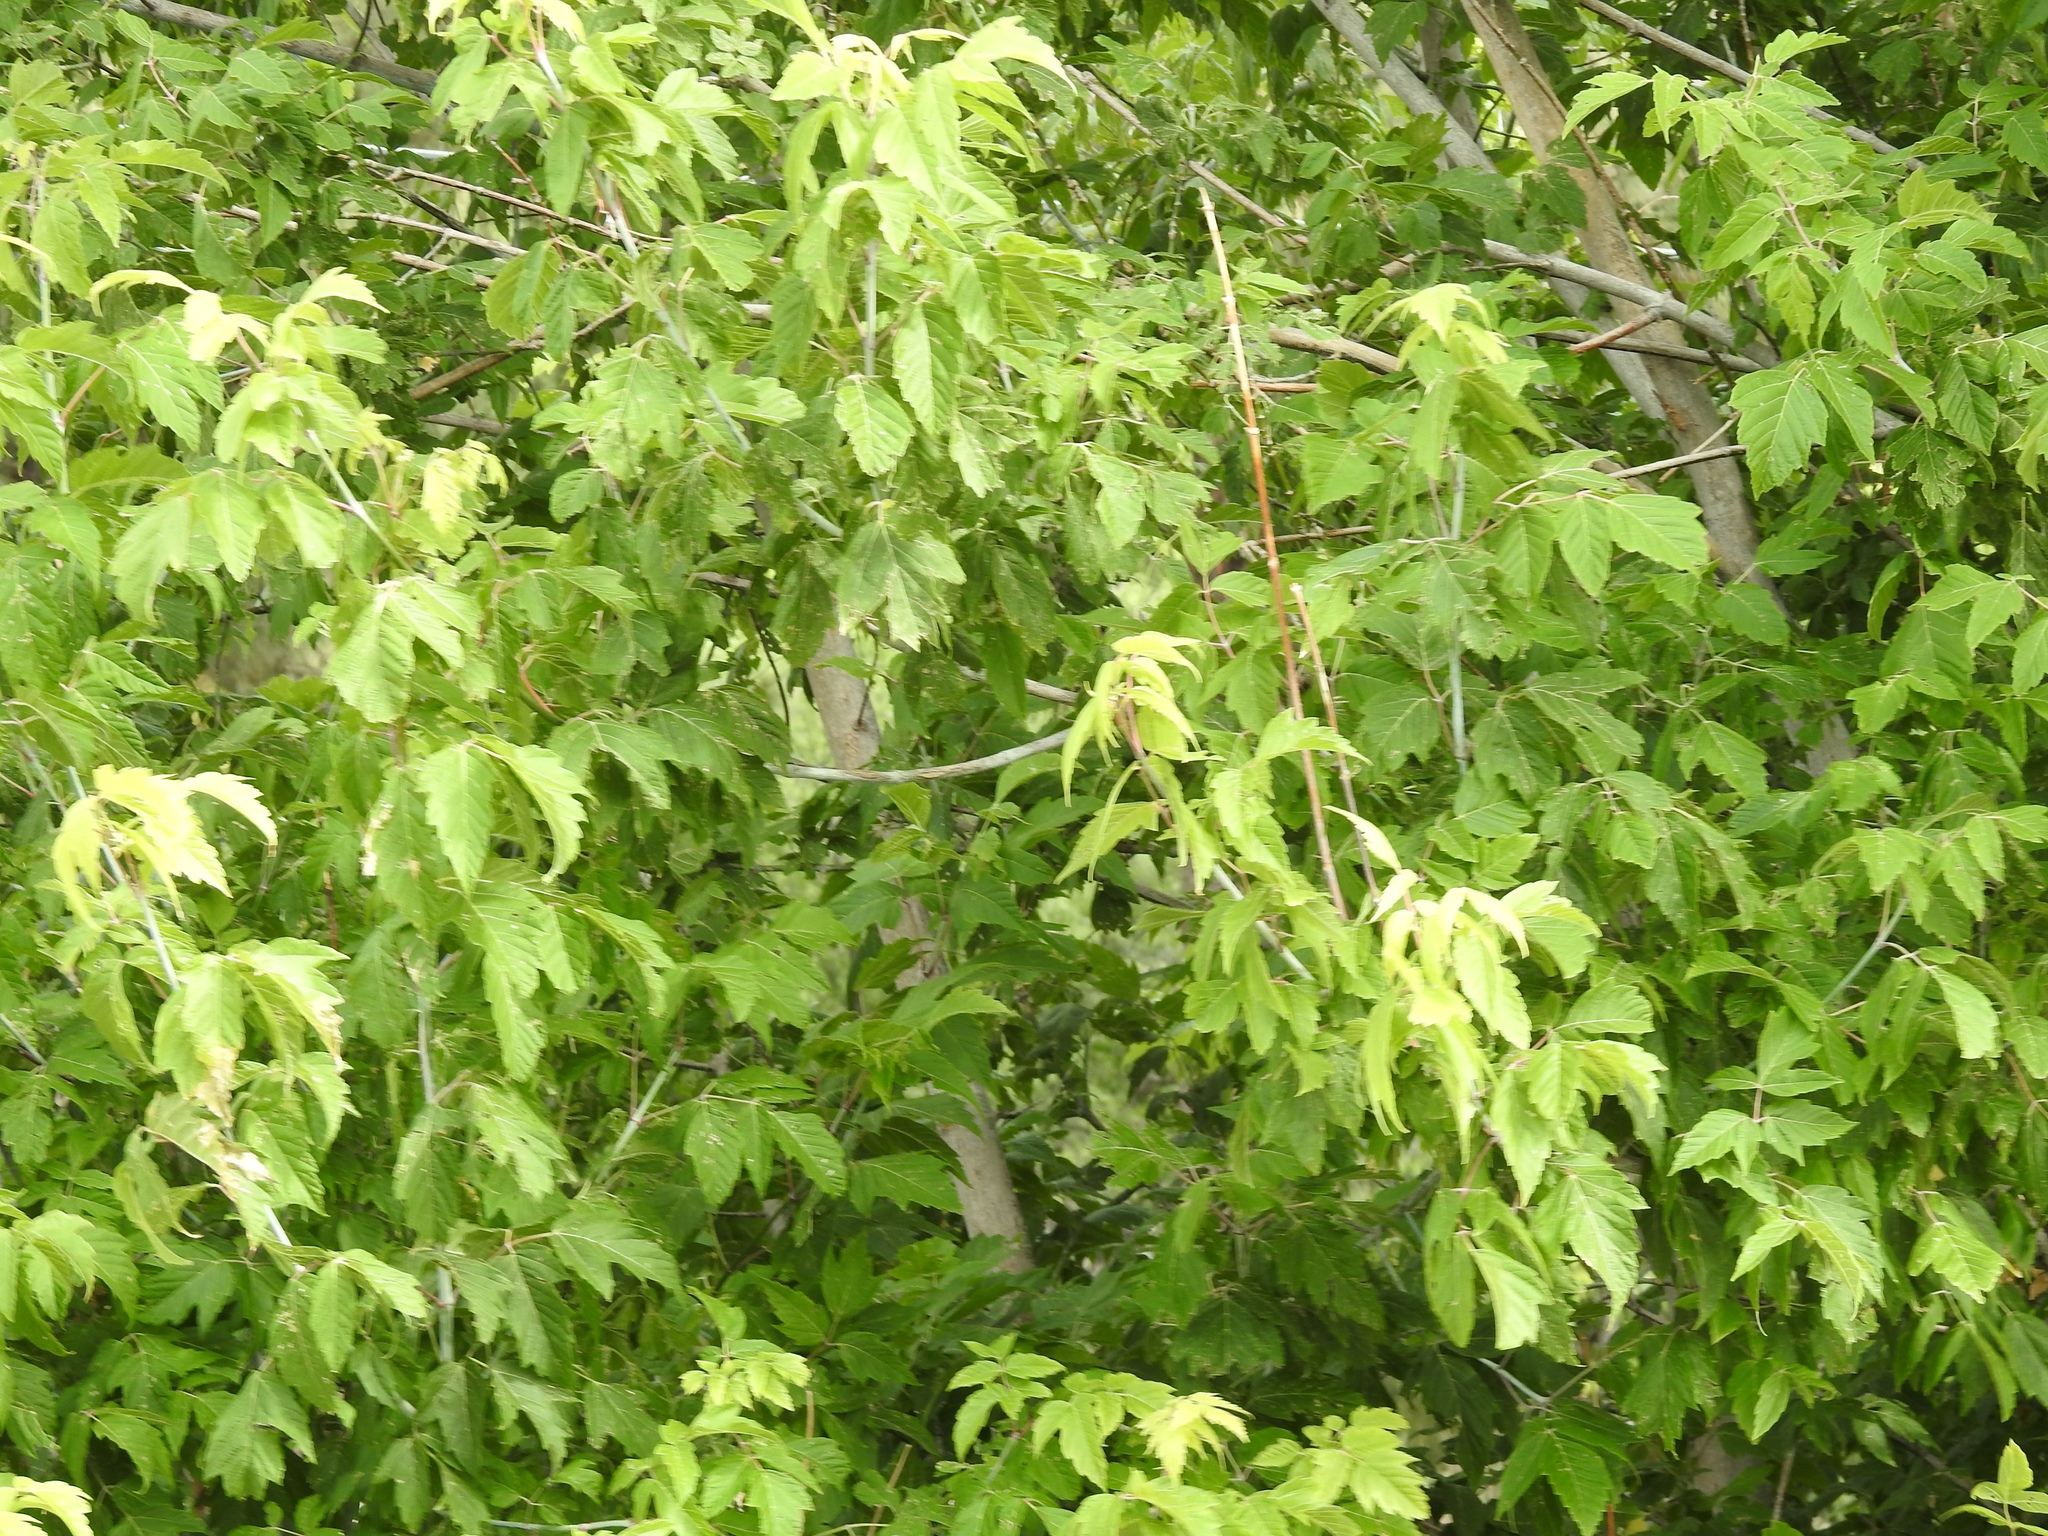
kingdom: Plantae
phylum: Tracheophyta
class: Magnoliopsida
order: Sapindales
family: Sapindaceae
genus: Acer
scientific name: Acer negundo
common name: Ashleaf maple
